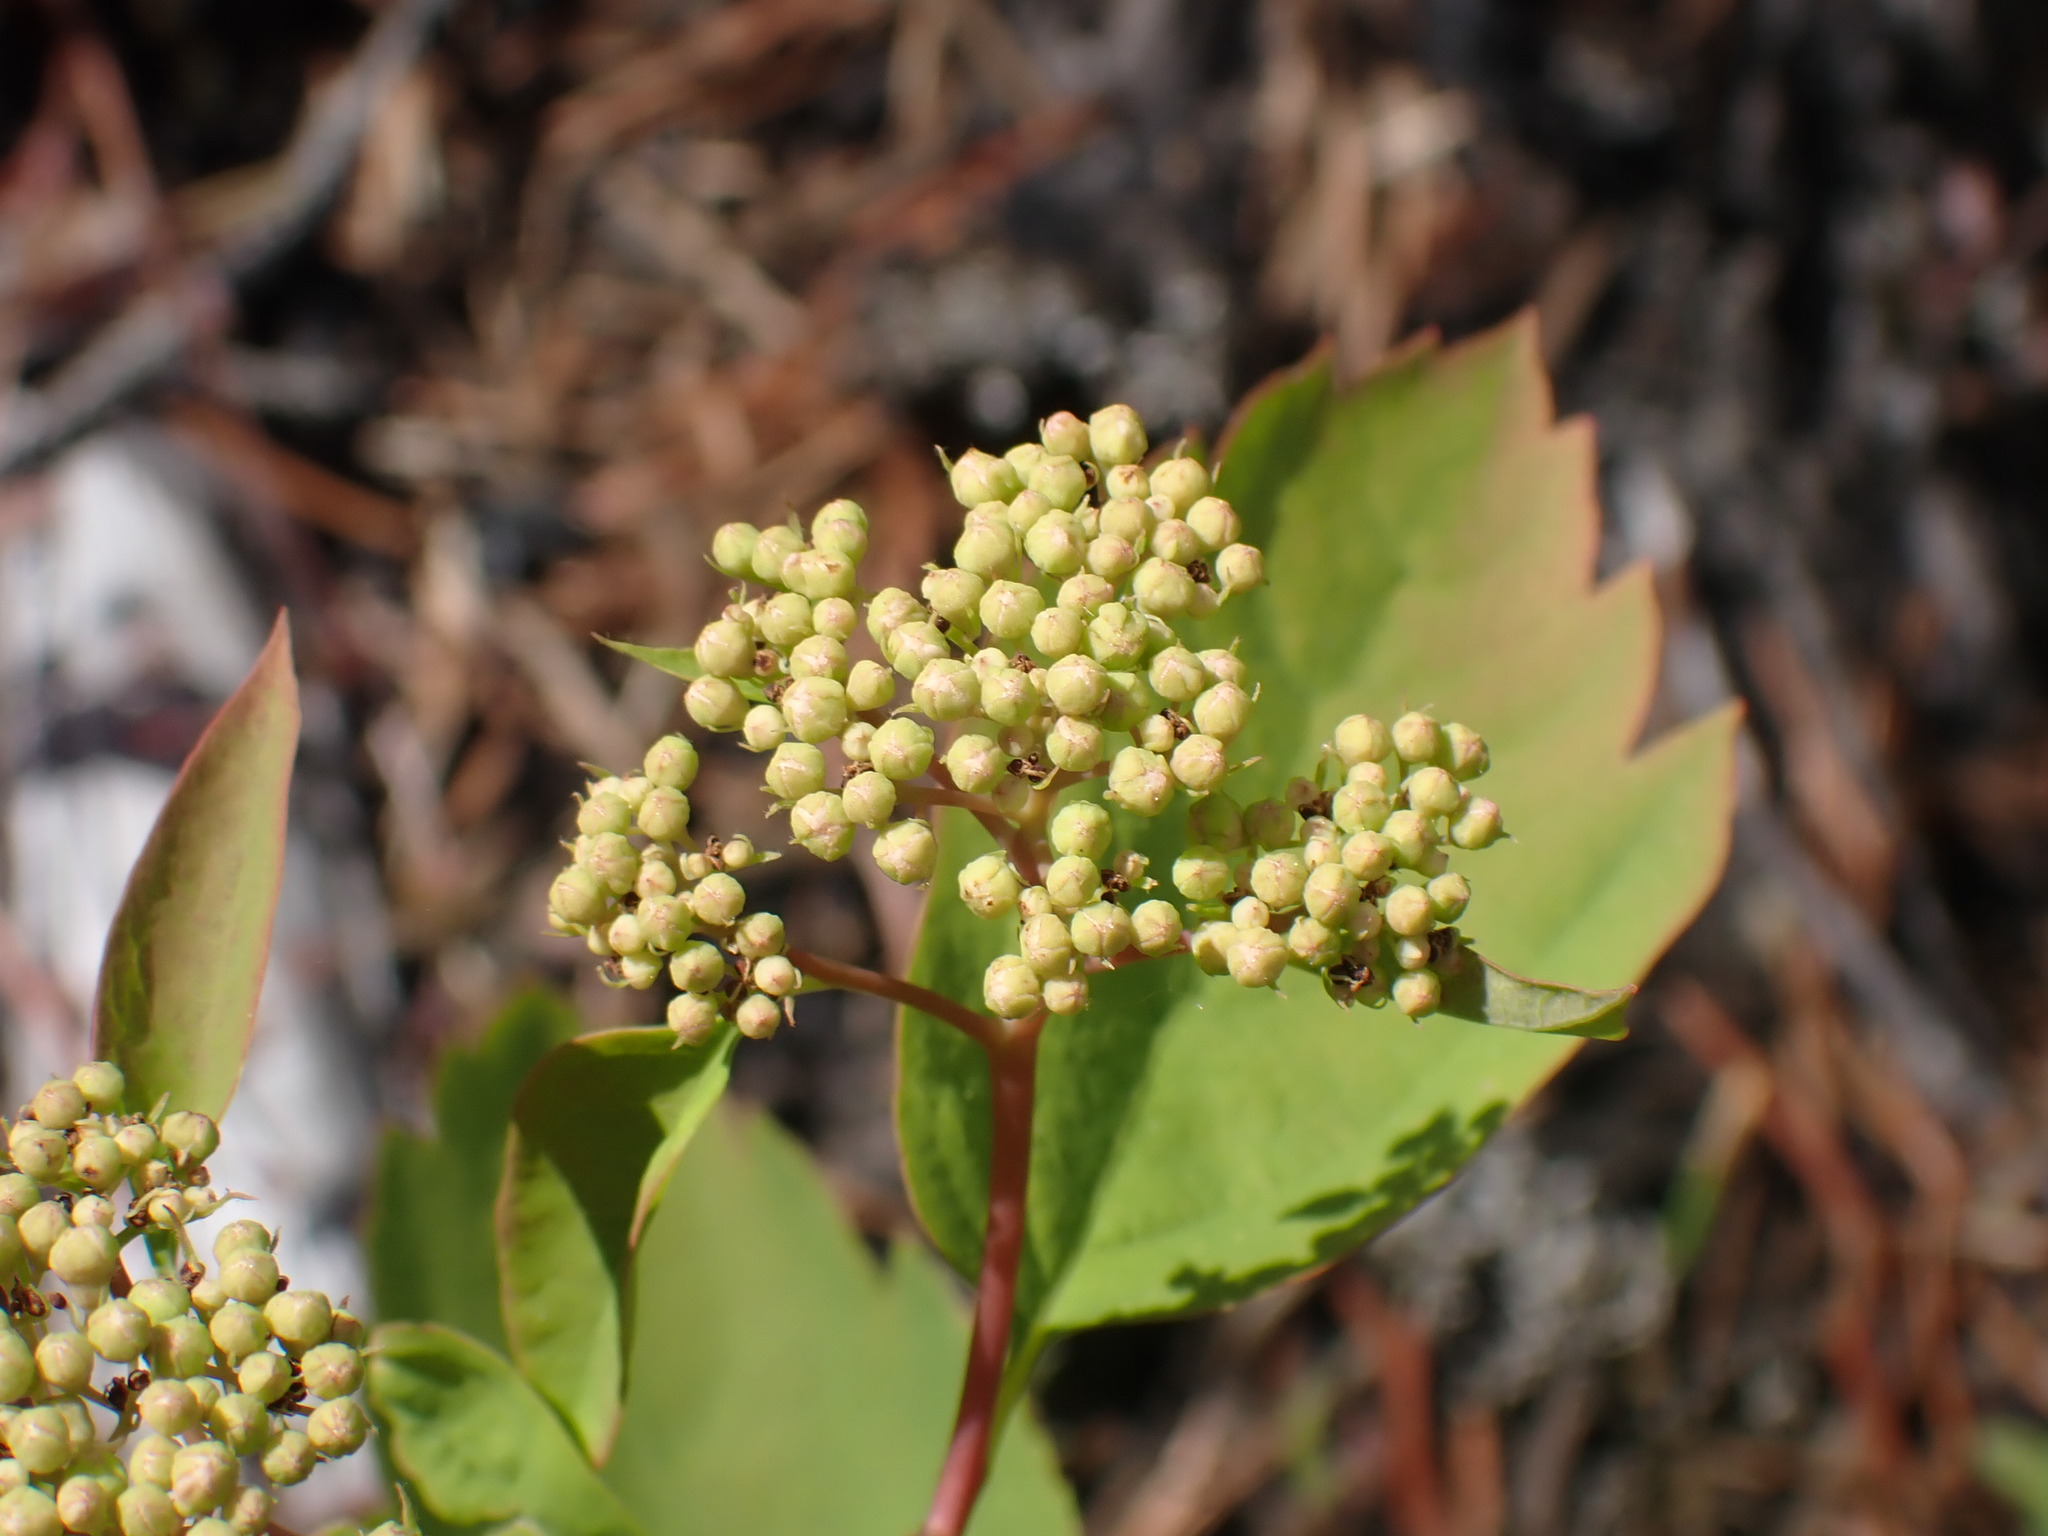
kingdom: Plantae
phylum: Tracheophyta
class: Magnoliopsida
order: Rosales
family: Rosaceae
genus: Spiraea
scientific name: Spiraea lucida
